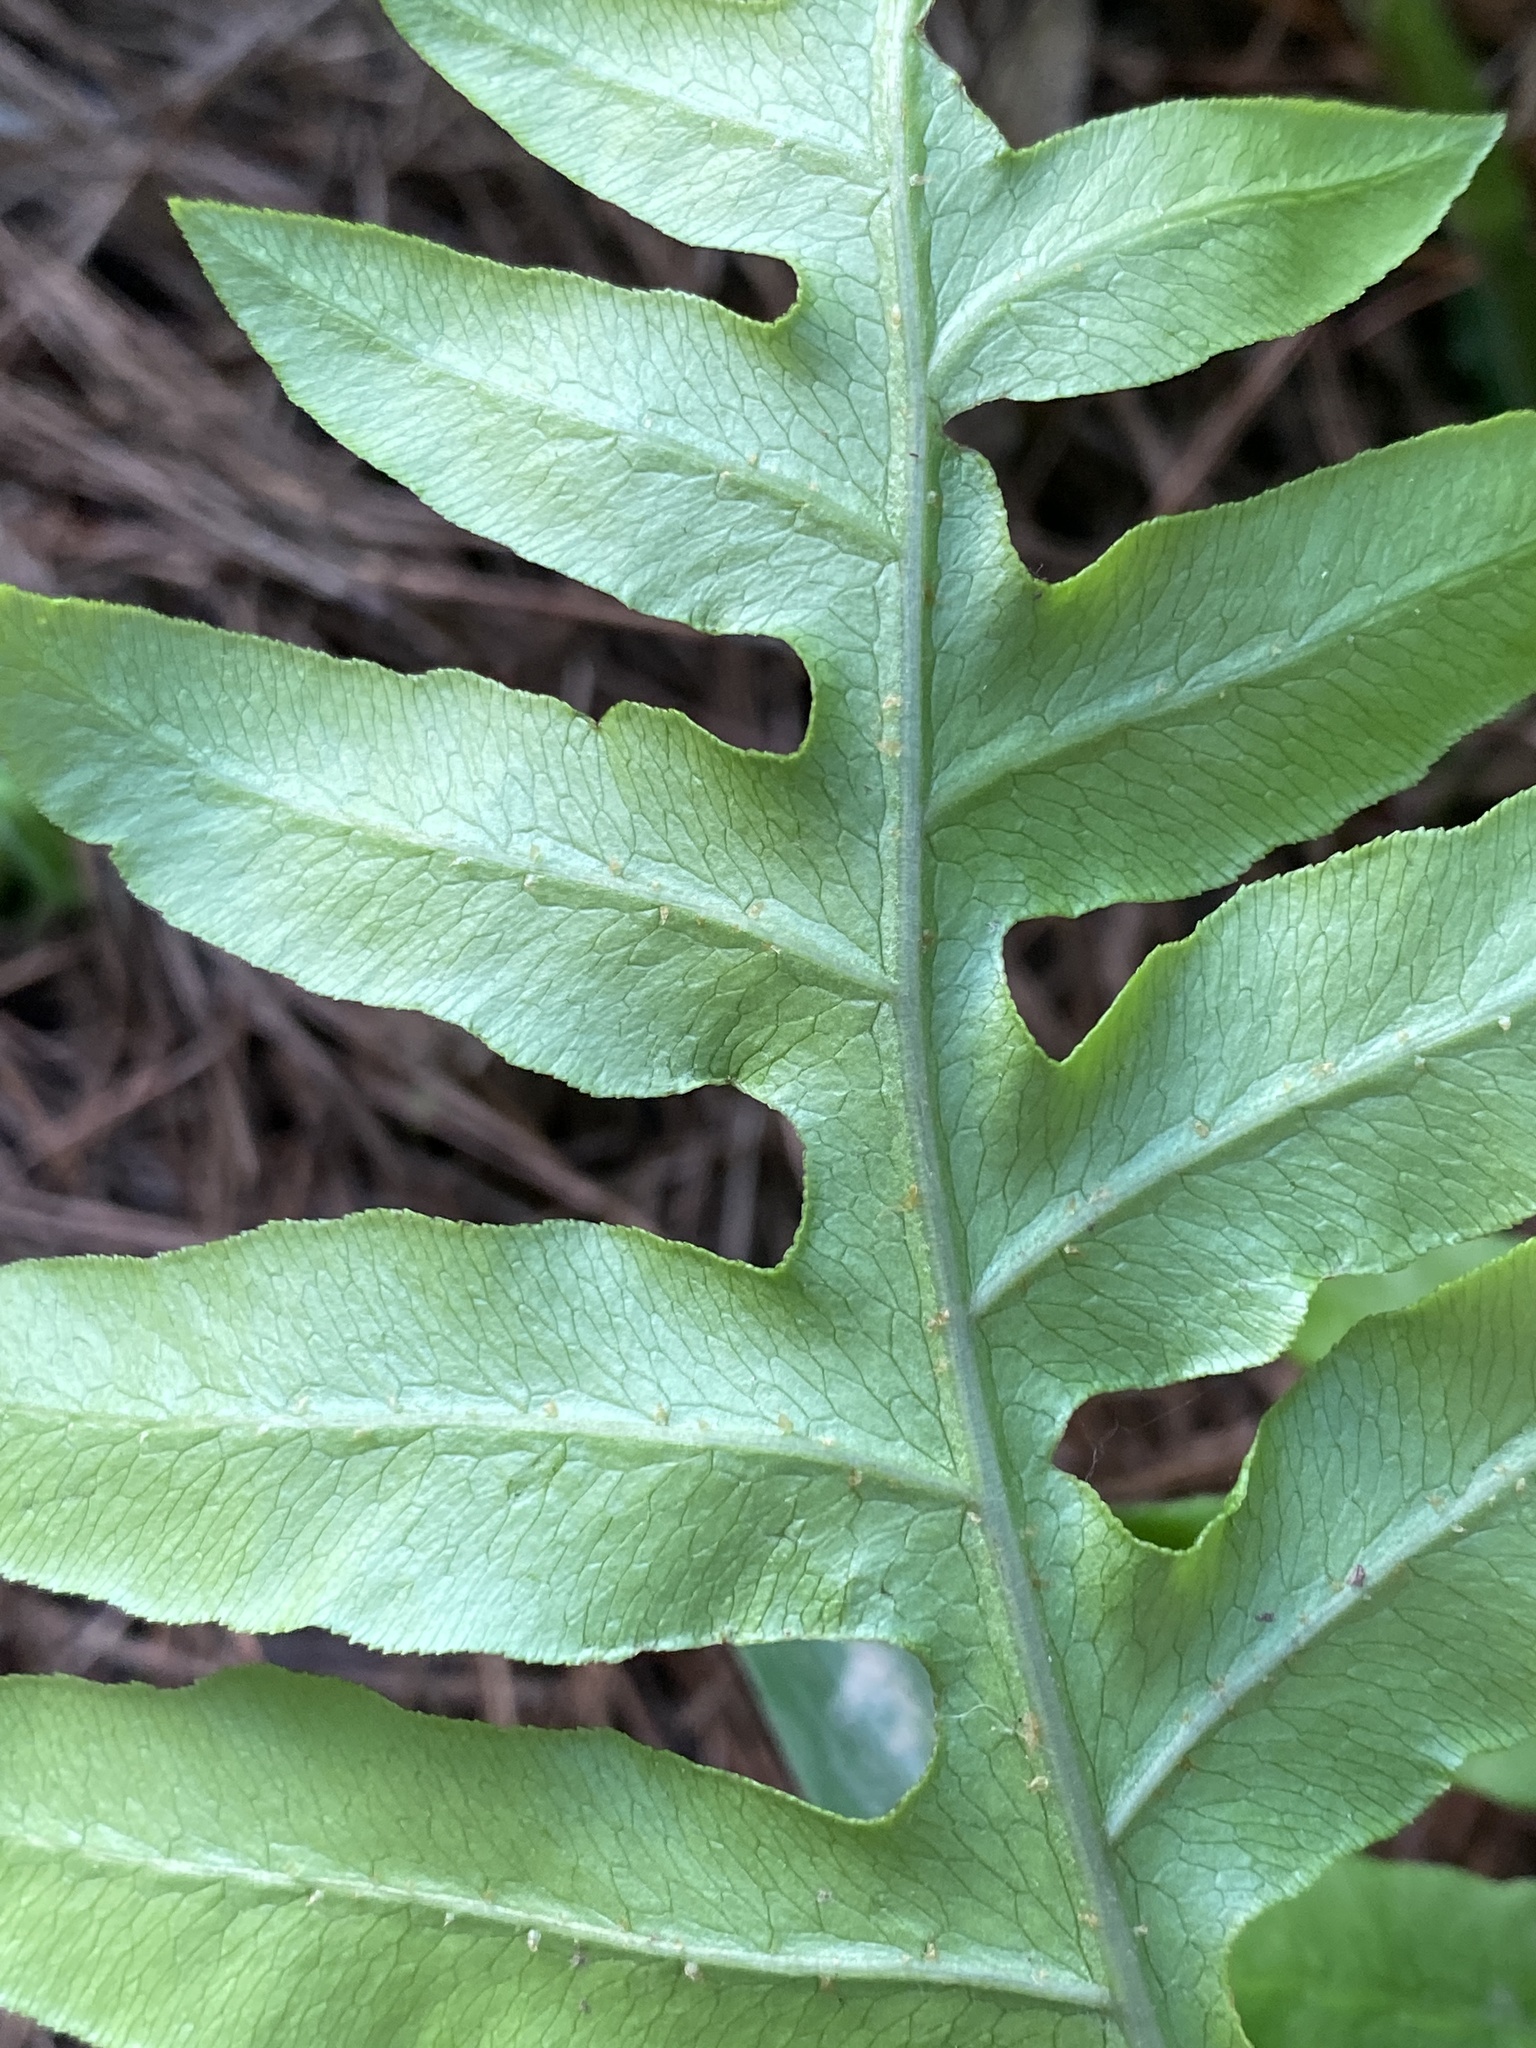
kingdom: Plantae
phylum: Tracheophyta
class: Polypodiopsida
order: Polypodiales
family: Blechnaceae
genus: Lorinseria
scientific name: Lorinseria areolata
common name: Dwarf chain fern
